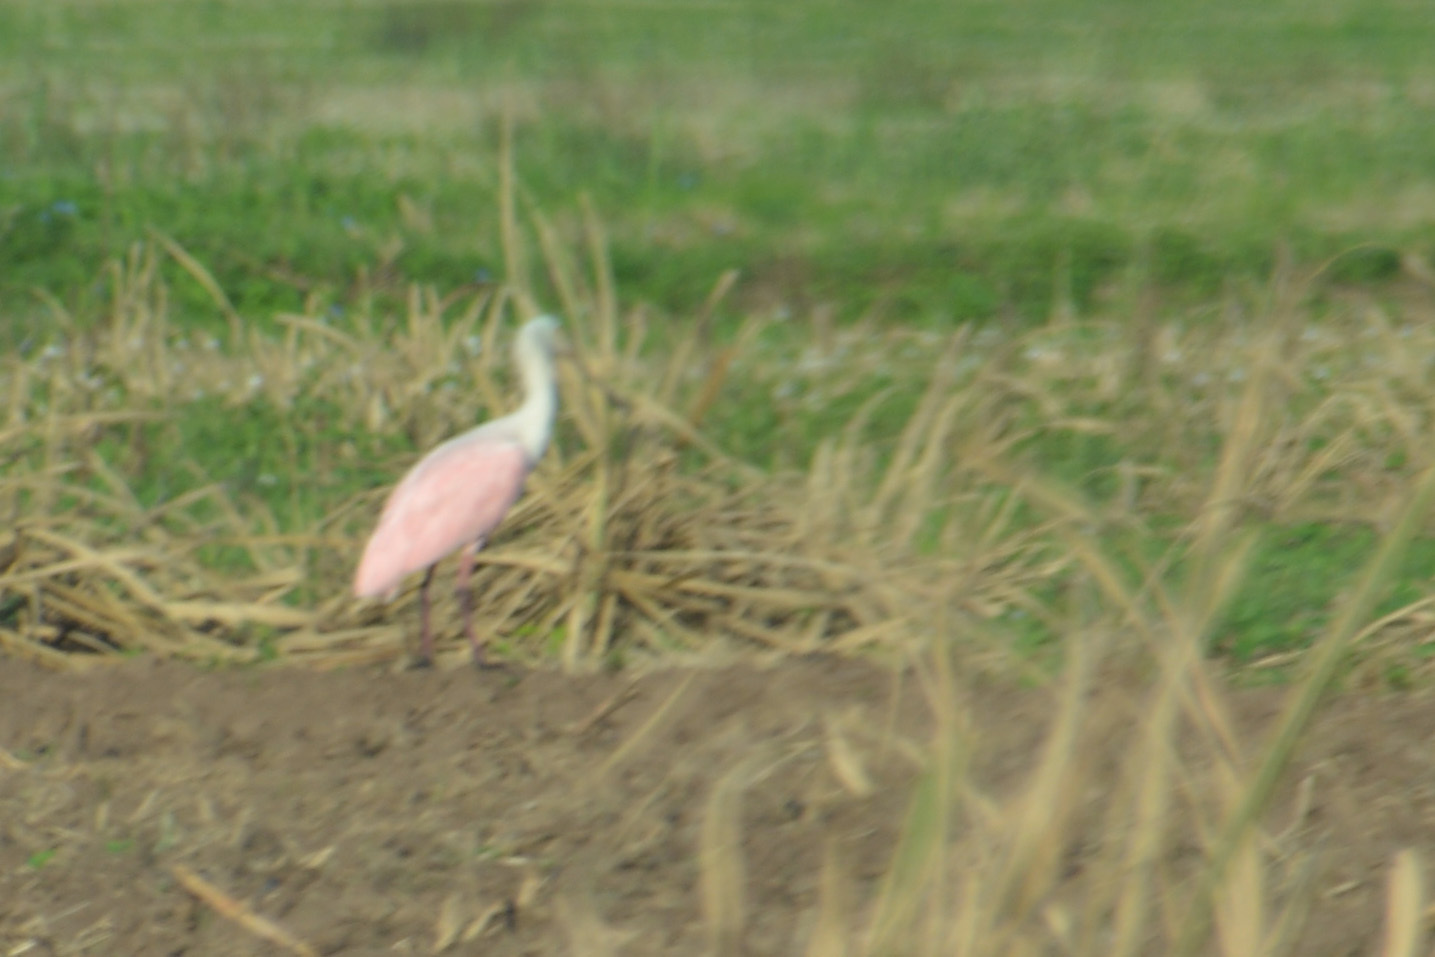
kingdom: Animalia
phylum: Chordata
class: Aves
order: Pelecaniformes
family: Threskiornithidae
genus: Platalea
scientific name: Platalea ajaja
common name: Roseate spoonbill
